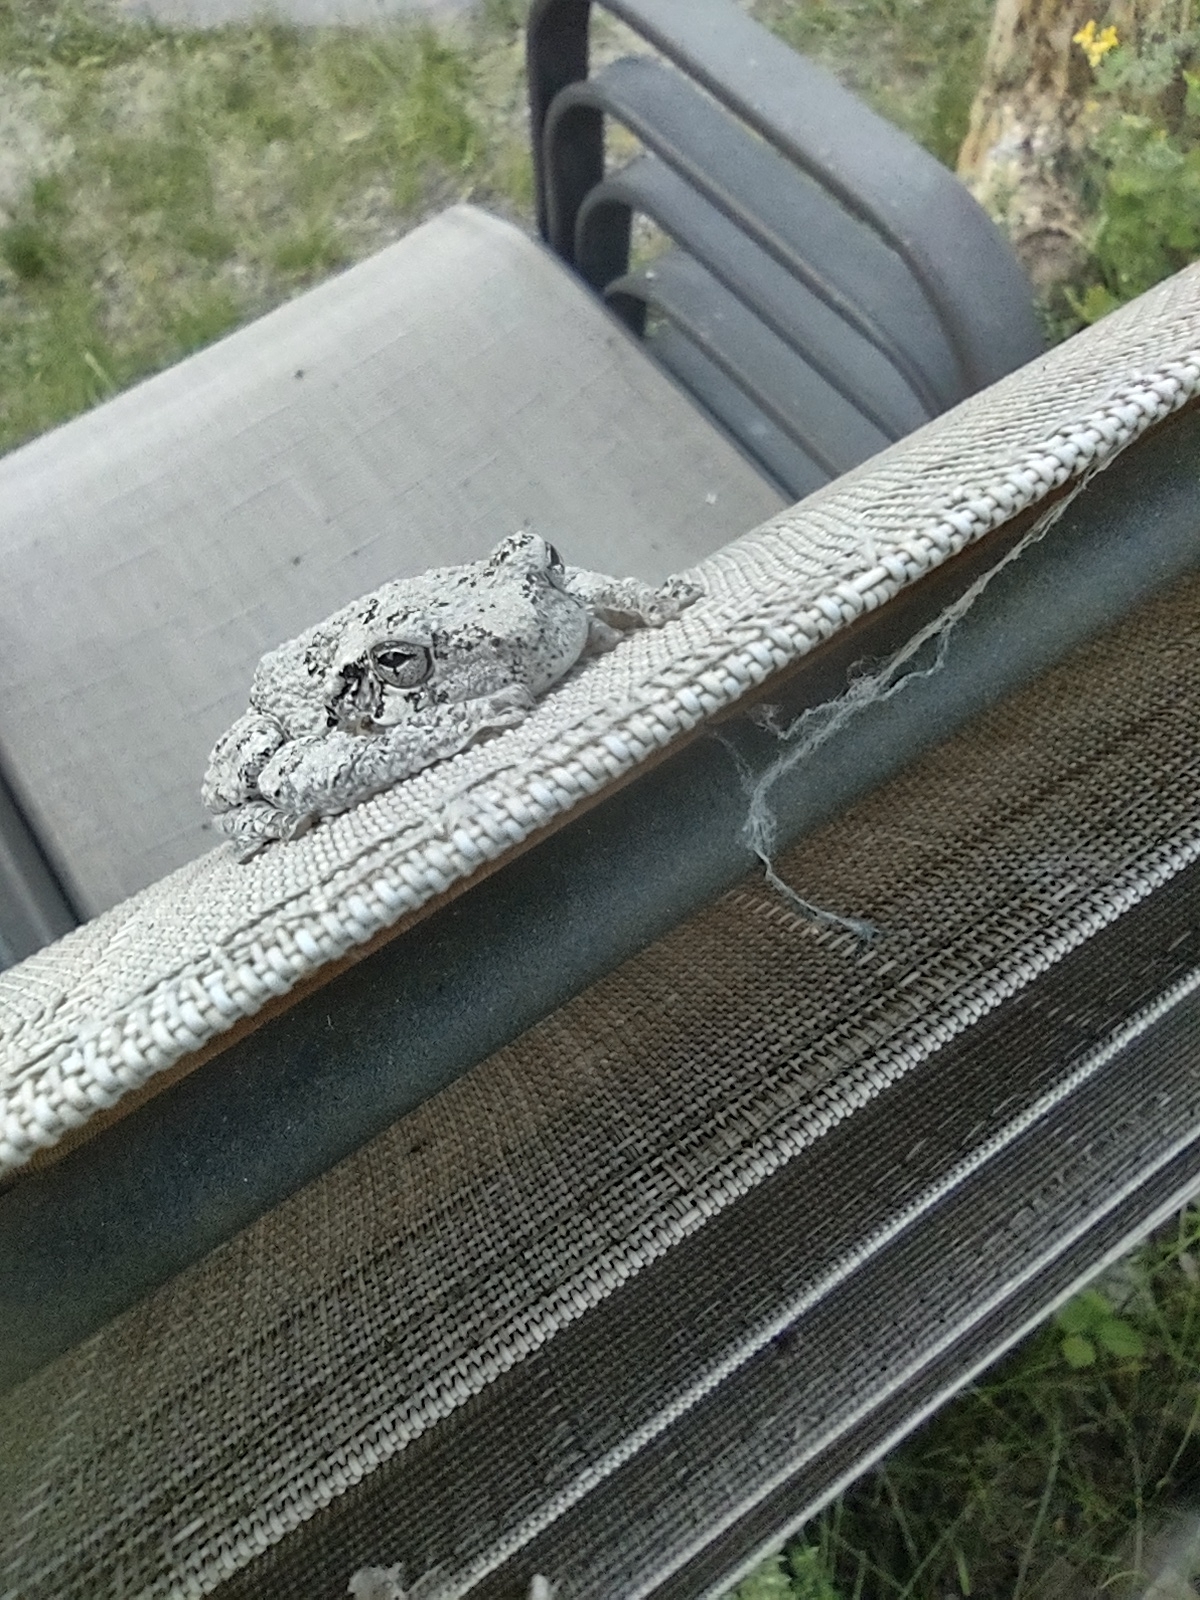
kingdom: Animalia
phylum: Chordata
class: Amphibia
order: Anura
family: Hylidae
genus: Dryophytes
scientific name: Dryophytes versicolor
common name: Gray treefrog
